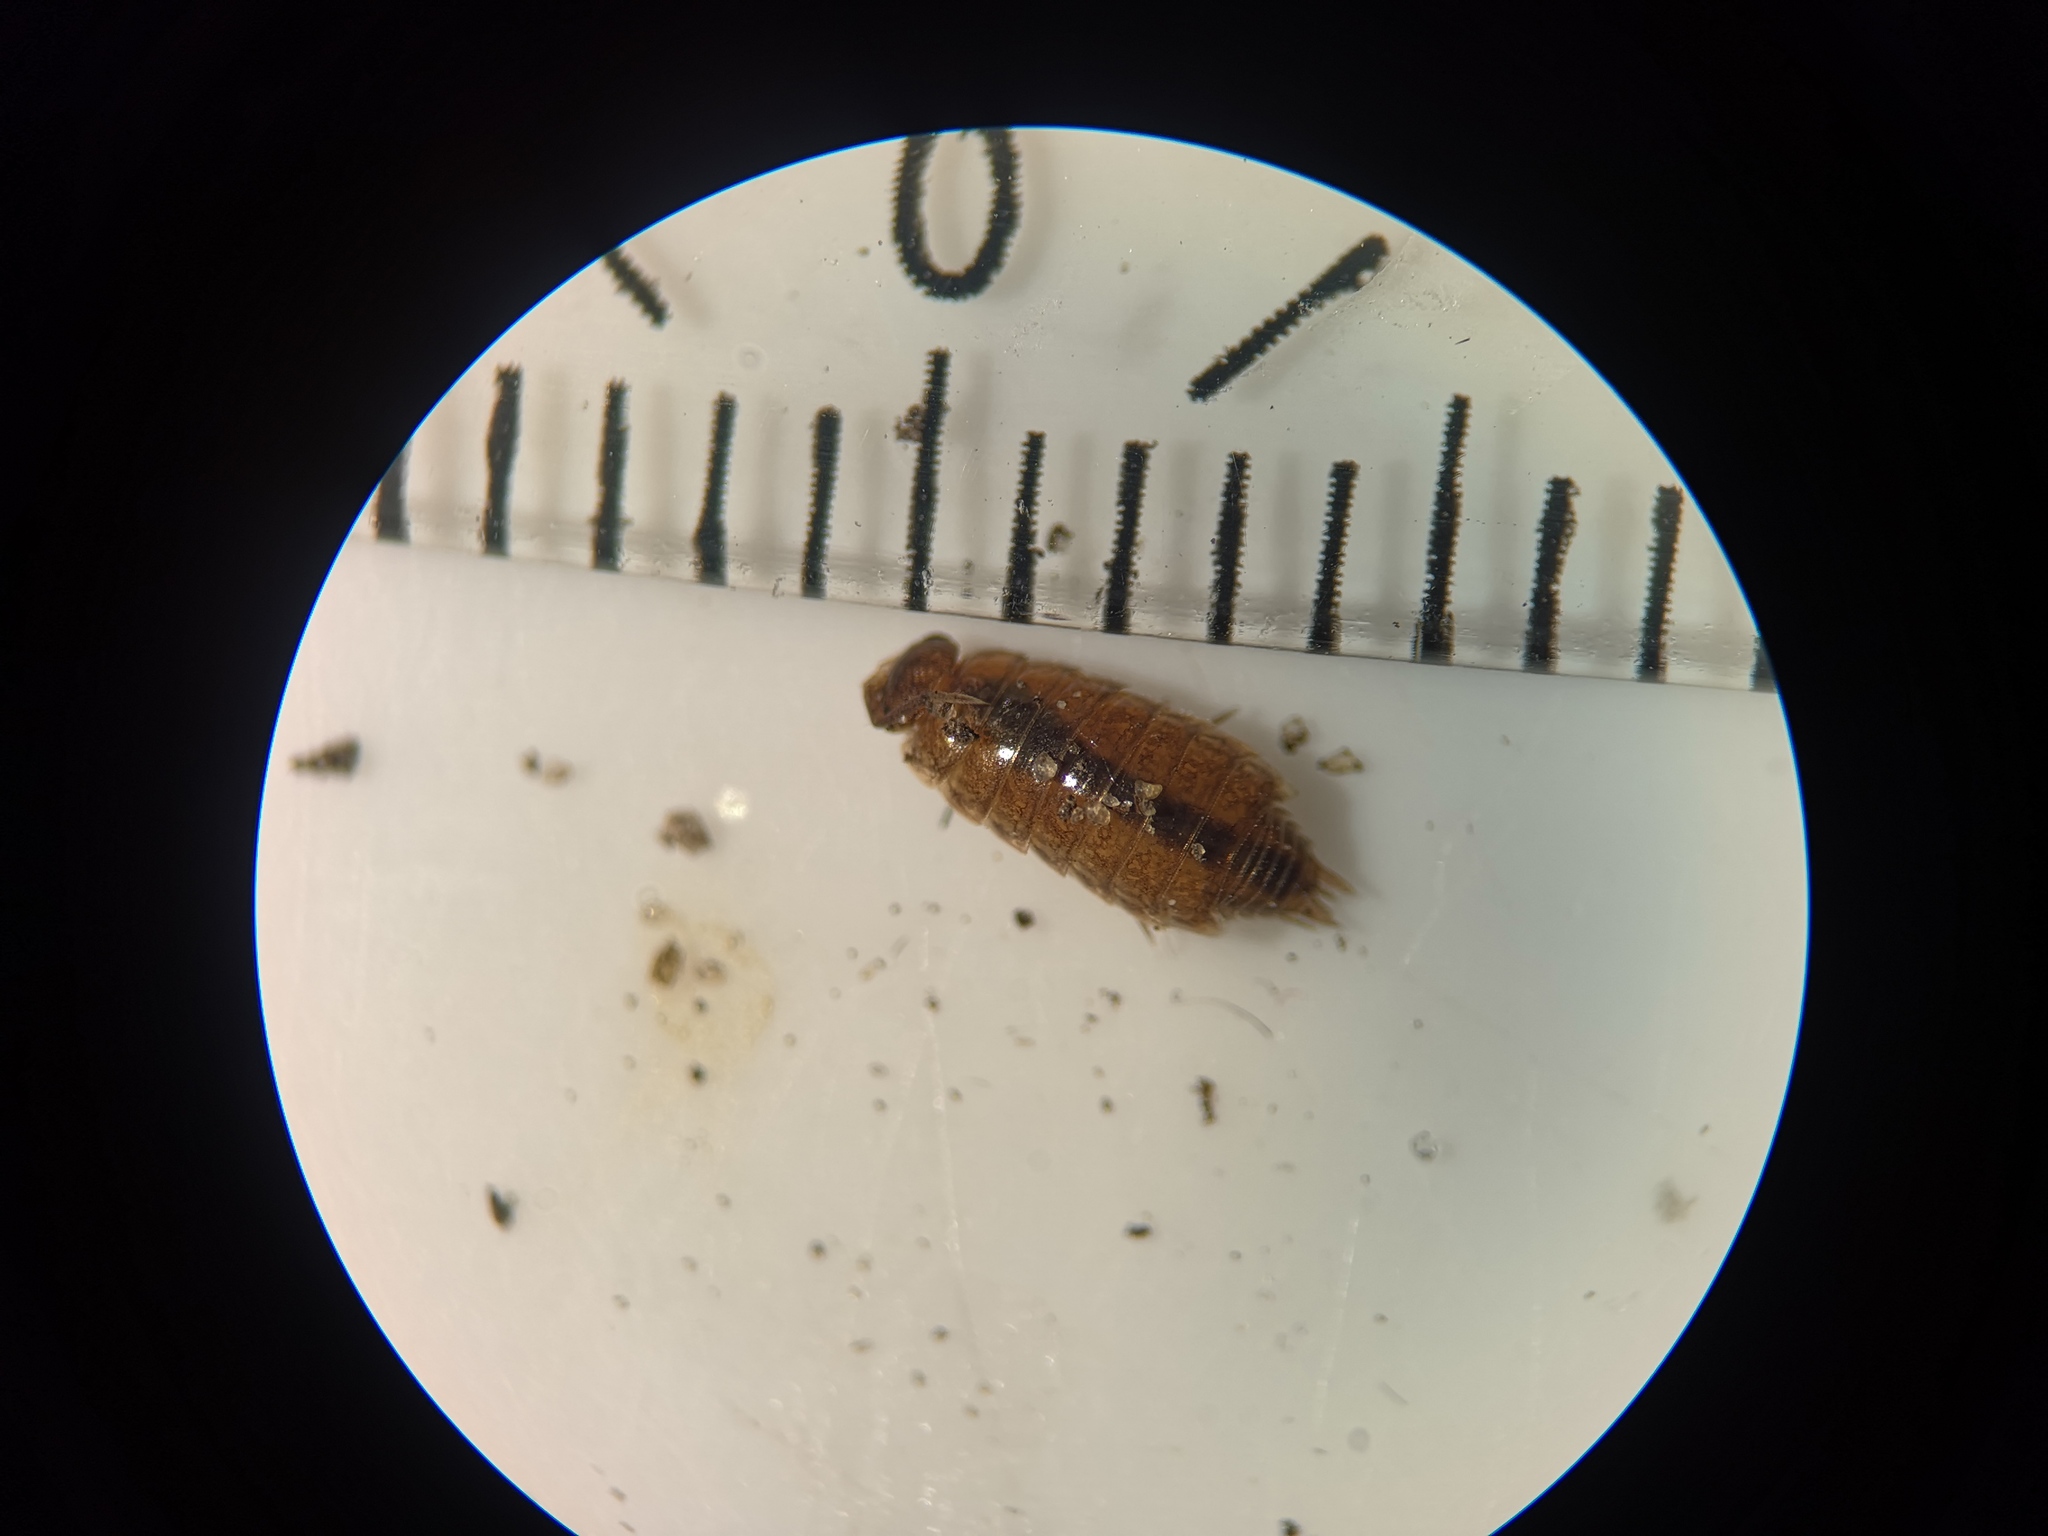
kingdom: Animalia
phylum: Arthropoda
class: Malacostraca
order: Isopoda
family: Philosciidae
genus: Philoscia
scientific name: Philoscia muscorum
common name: Common striped woodlouse
